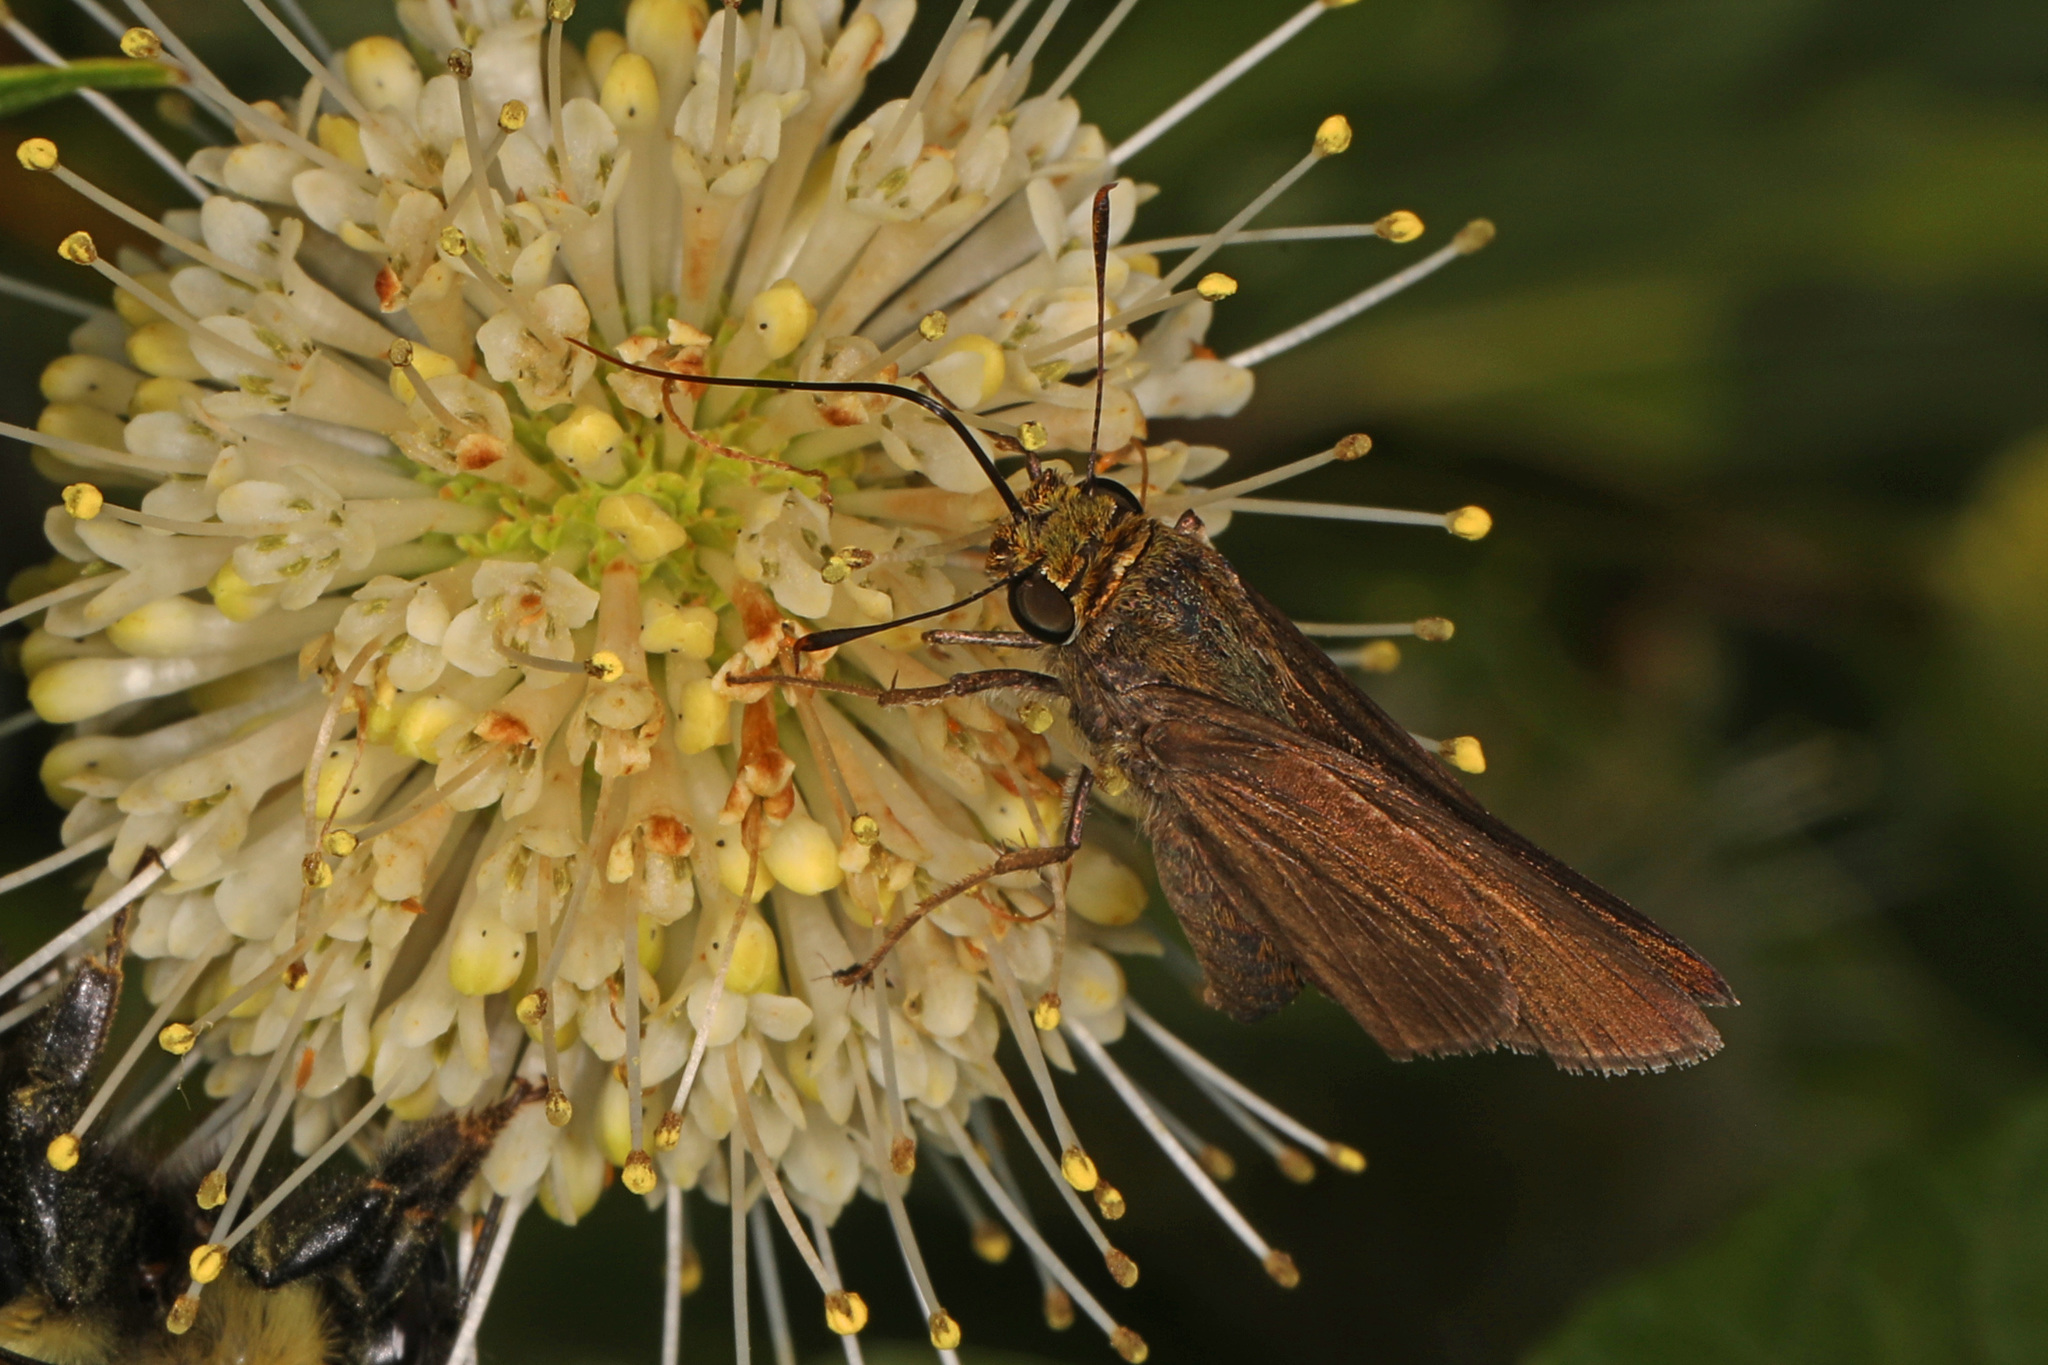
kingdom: Animalia
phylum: Arthropoda
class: Insecta
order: Lepidoptera
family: Hesperiidae
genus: Euphyes
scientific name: Euphyes vestris
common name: Dun skipper
